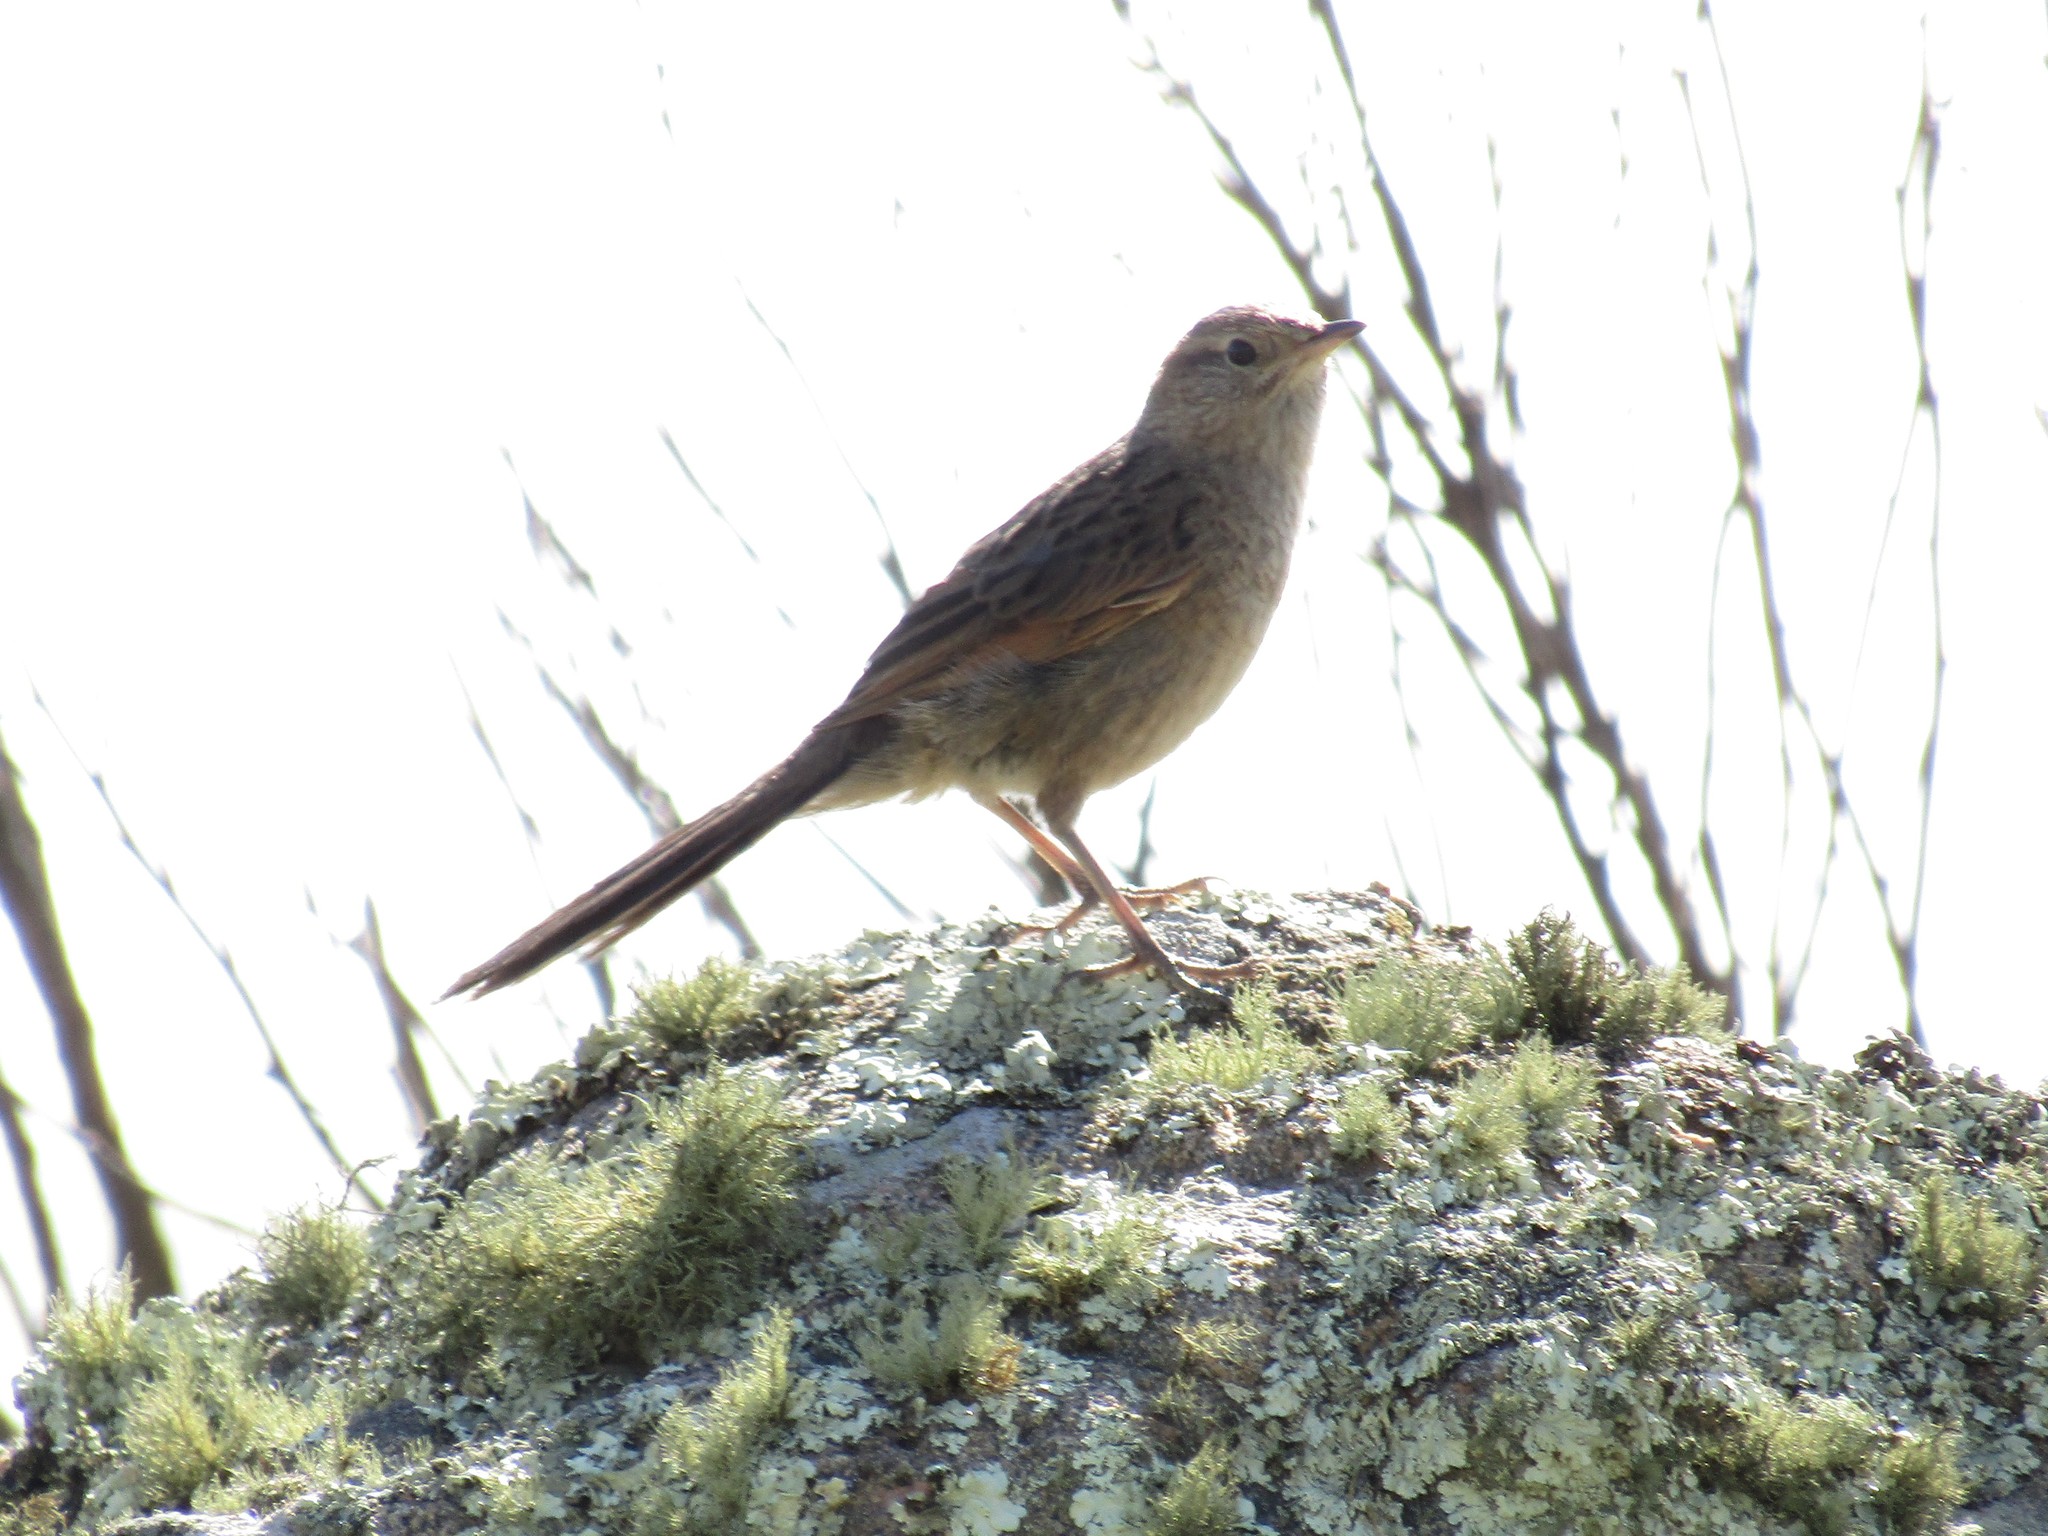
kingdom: Animalia
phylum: Chordata
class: Aves
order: Passeriformes
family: Furnariidae
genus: Asthenes
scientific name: Asthenes wyatti
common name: Streak-backed canastero
